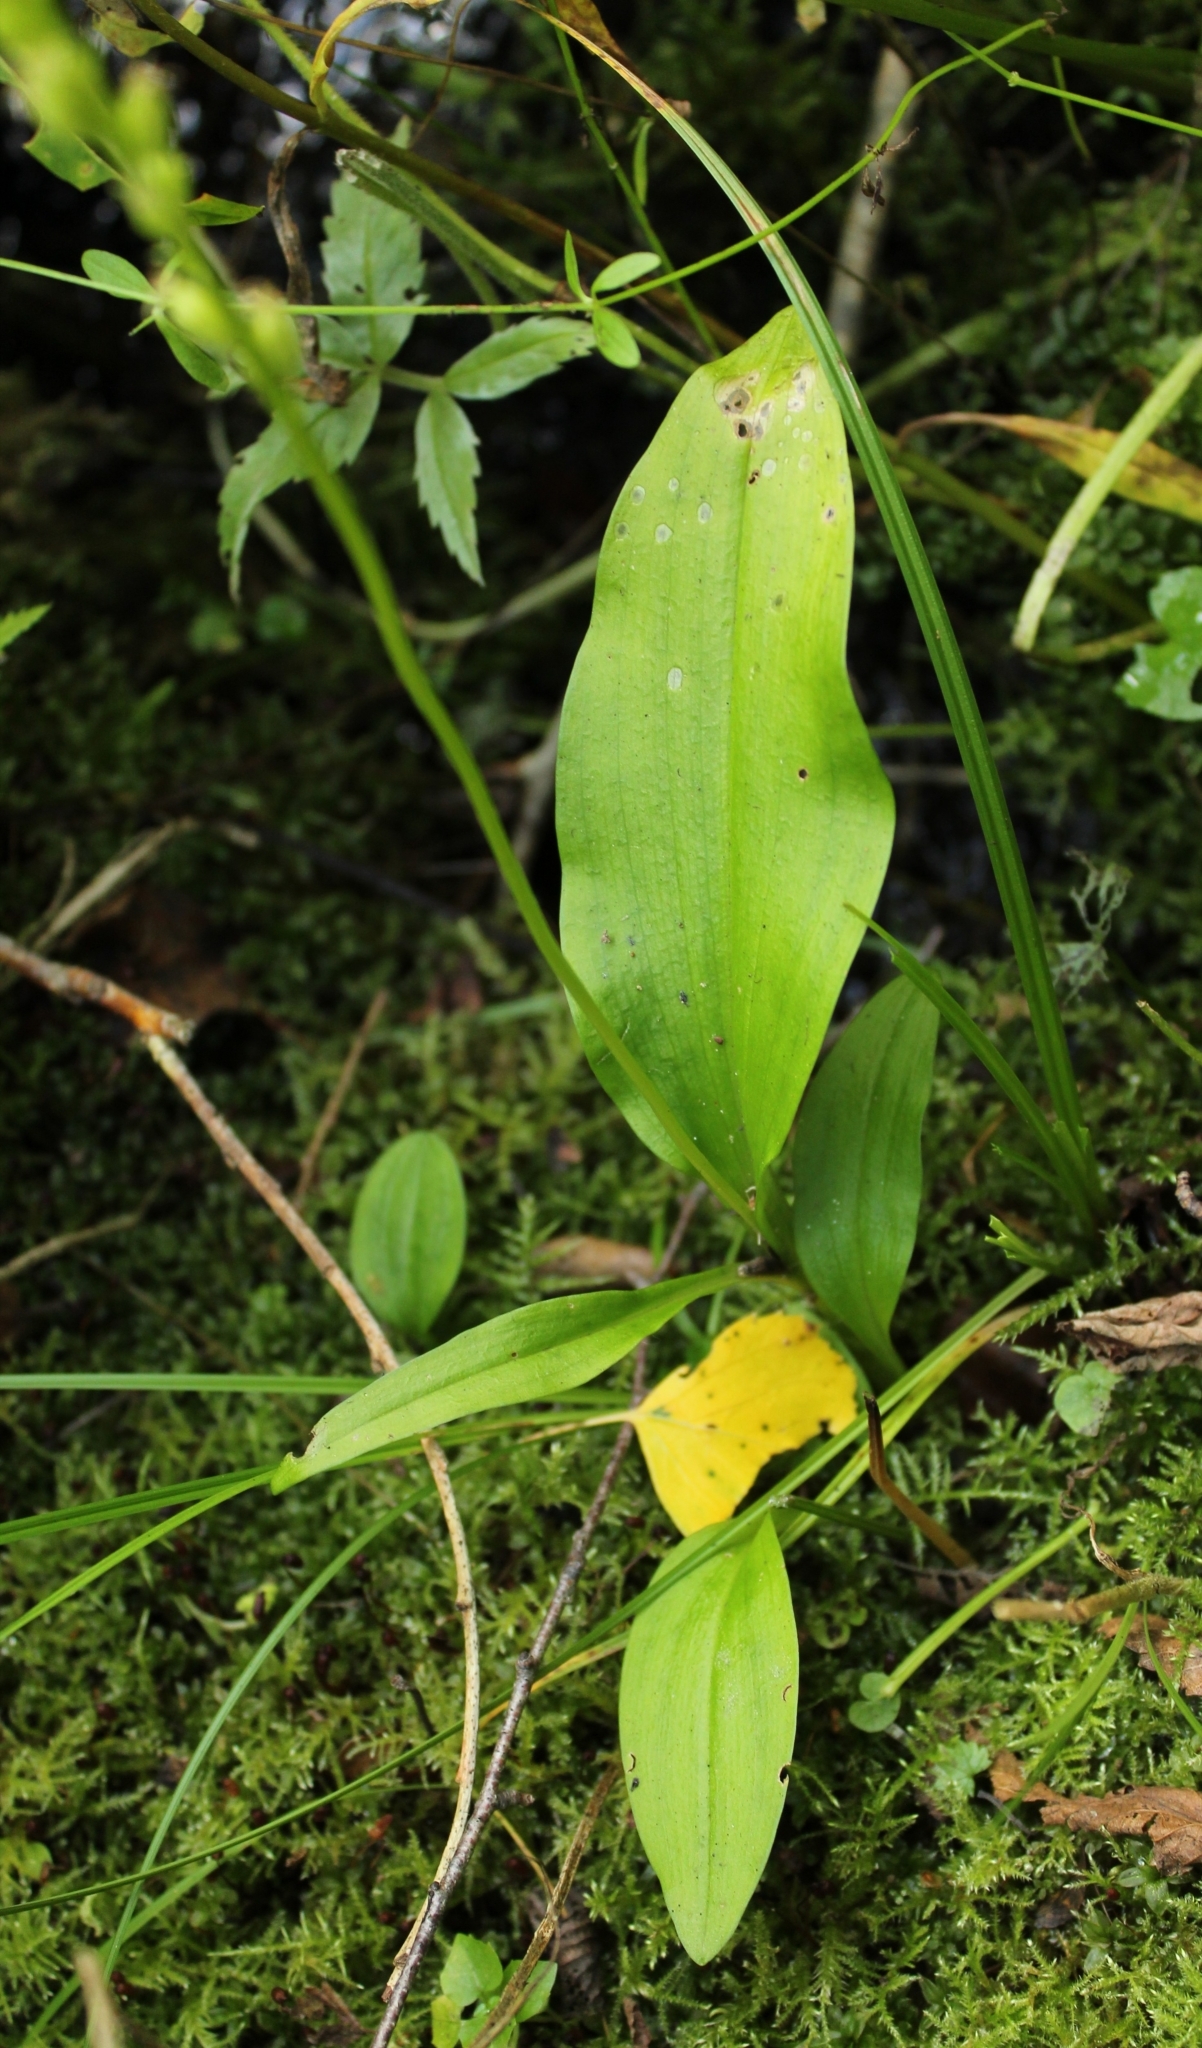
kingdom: Plantae
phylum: Tracheophyta
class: Liliopsida
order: Asparagales
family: Orchidaceae
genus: Malaxis
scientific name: Malaxis monophyllos
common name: White adder's-mouth
